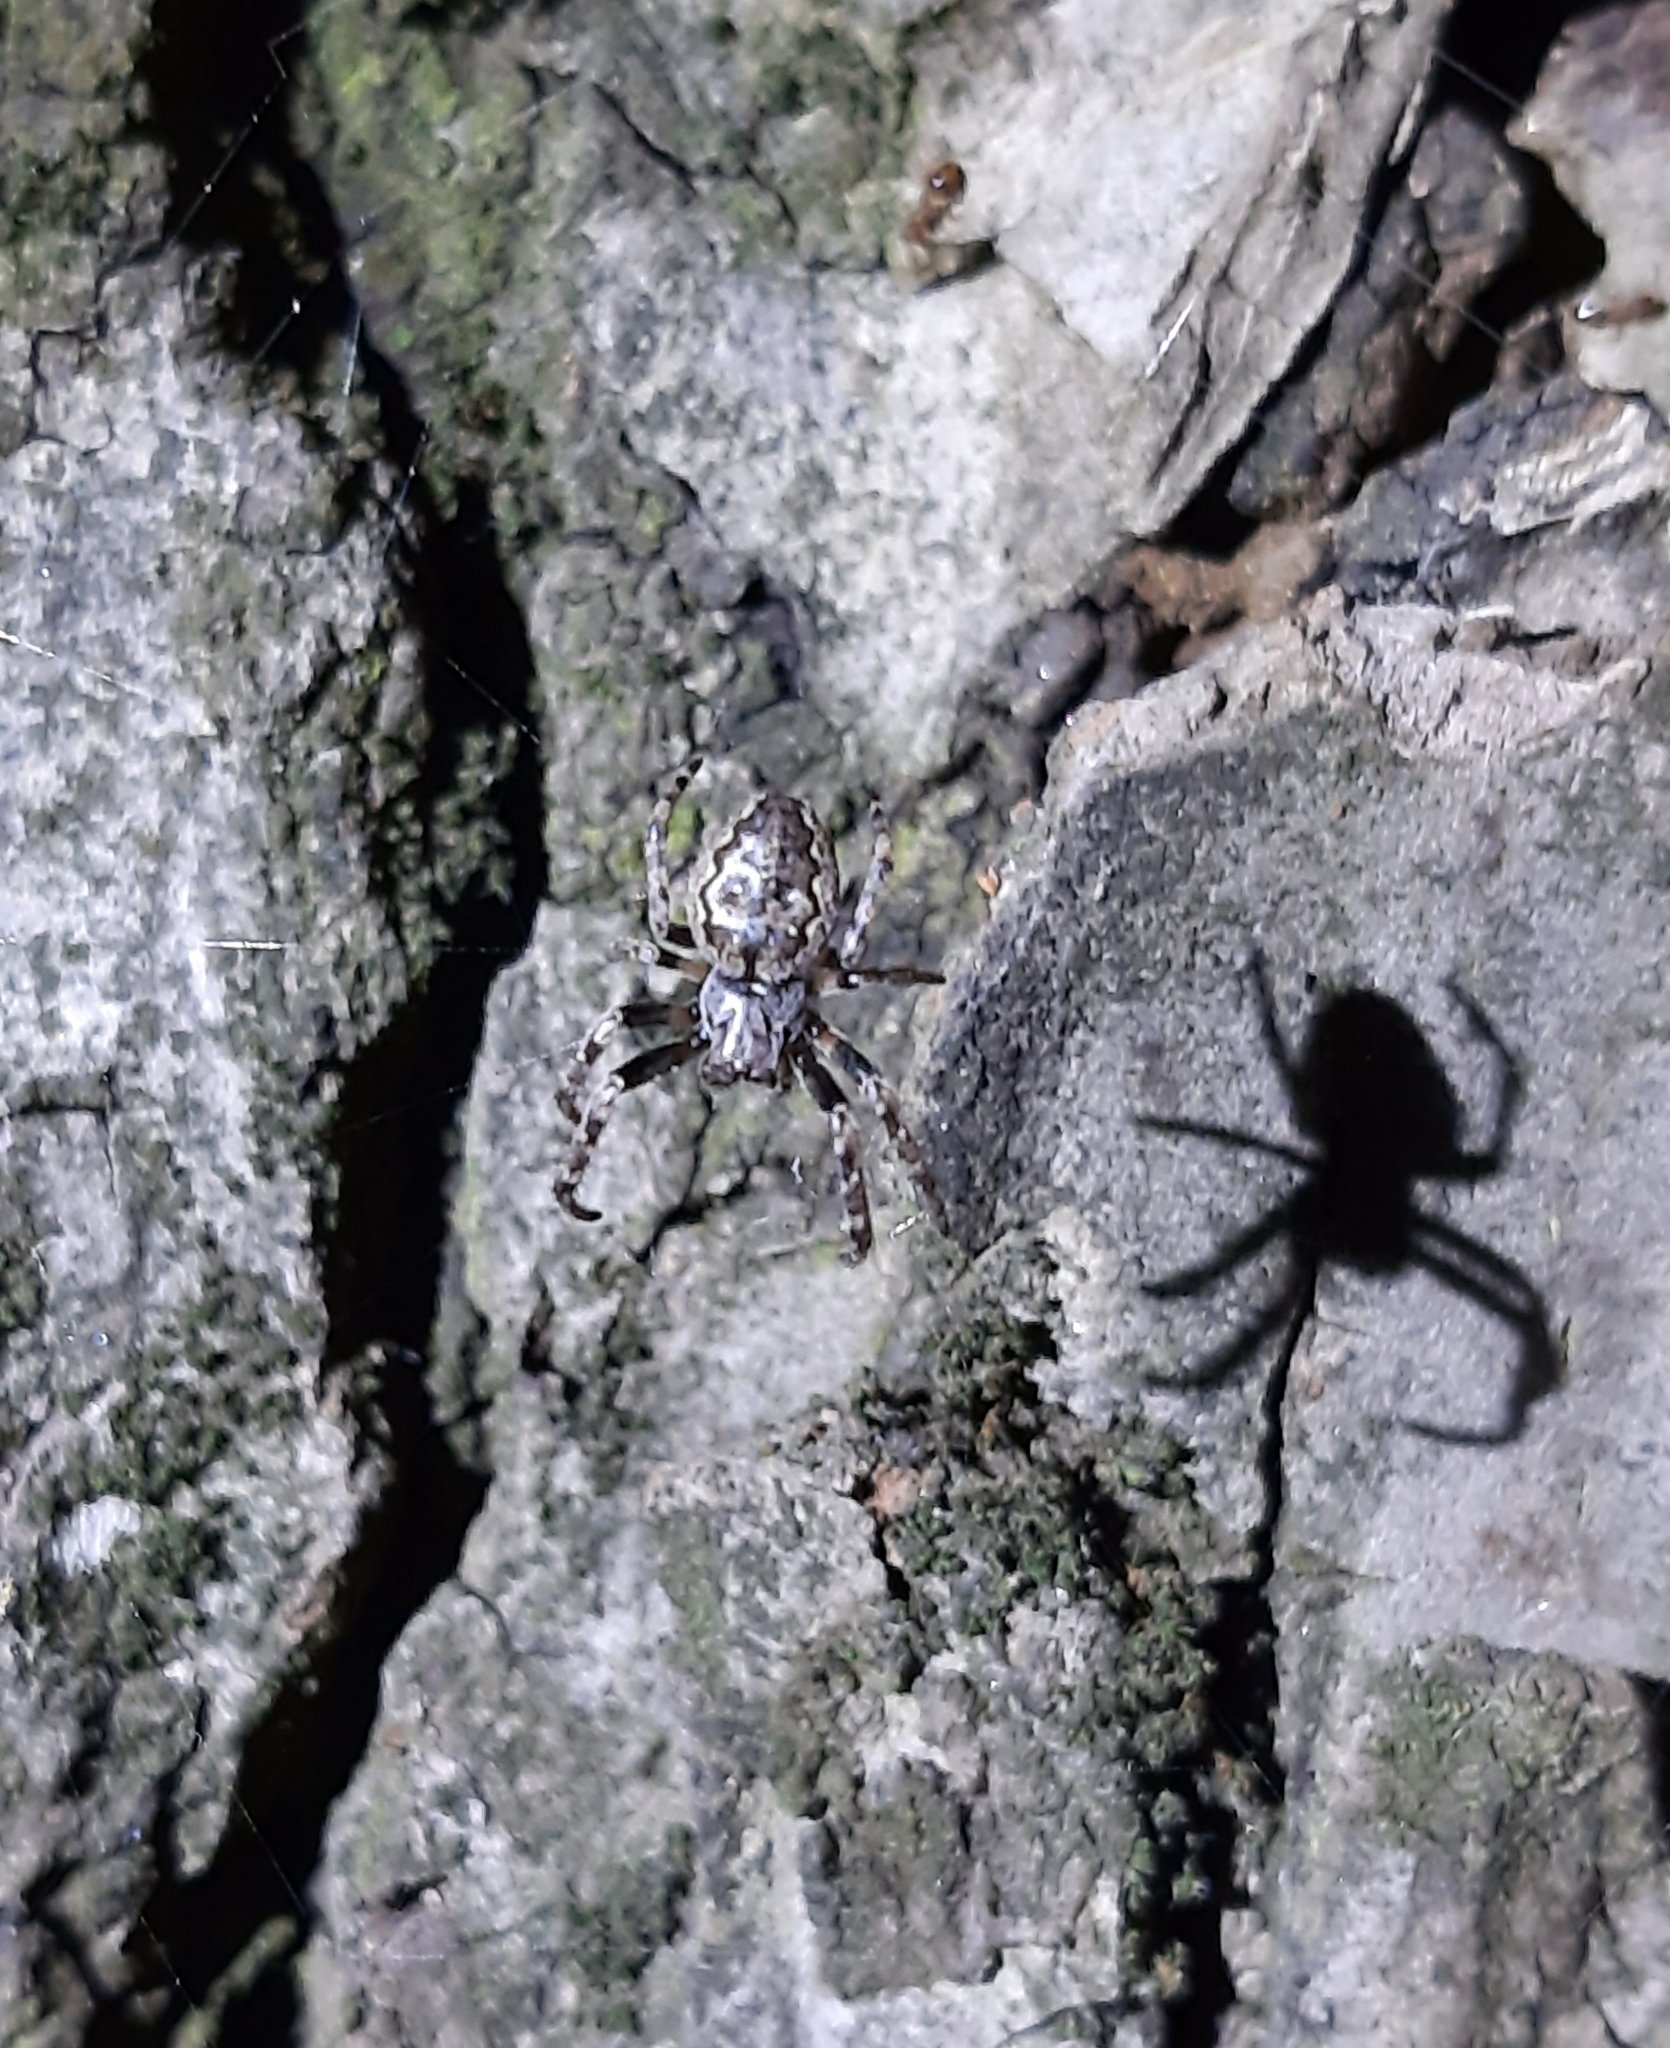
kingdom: Animalia
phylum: Arthropoda
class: Arachnida
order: Araneae
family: Araneidae
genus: Nuctenea
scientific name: Nuctenea umbratica
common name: Toad spider
